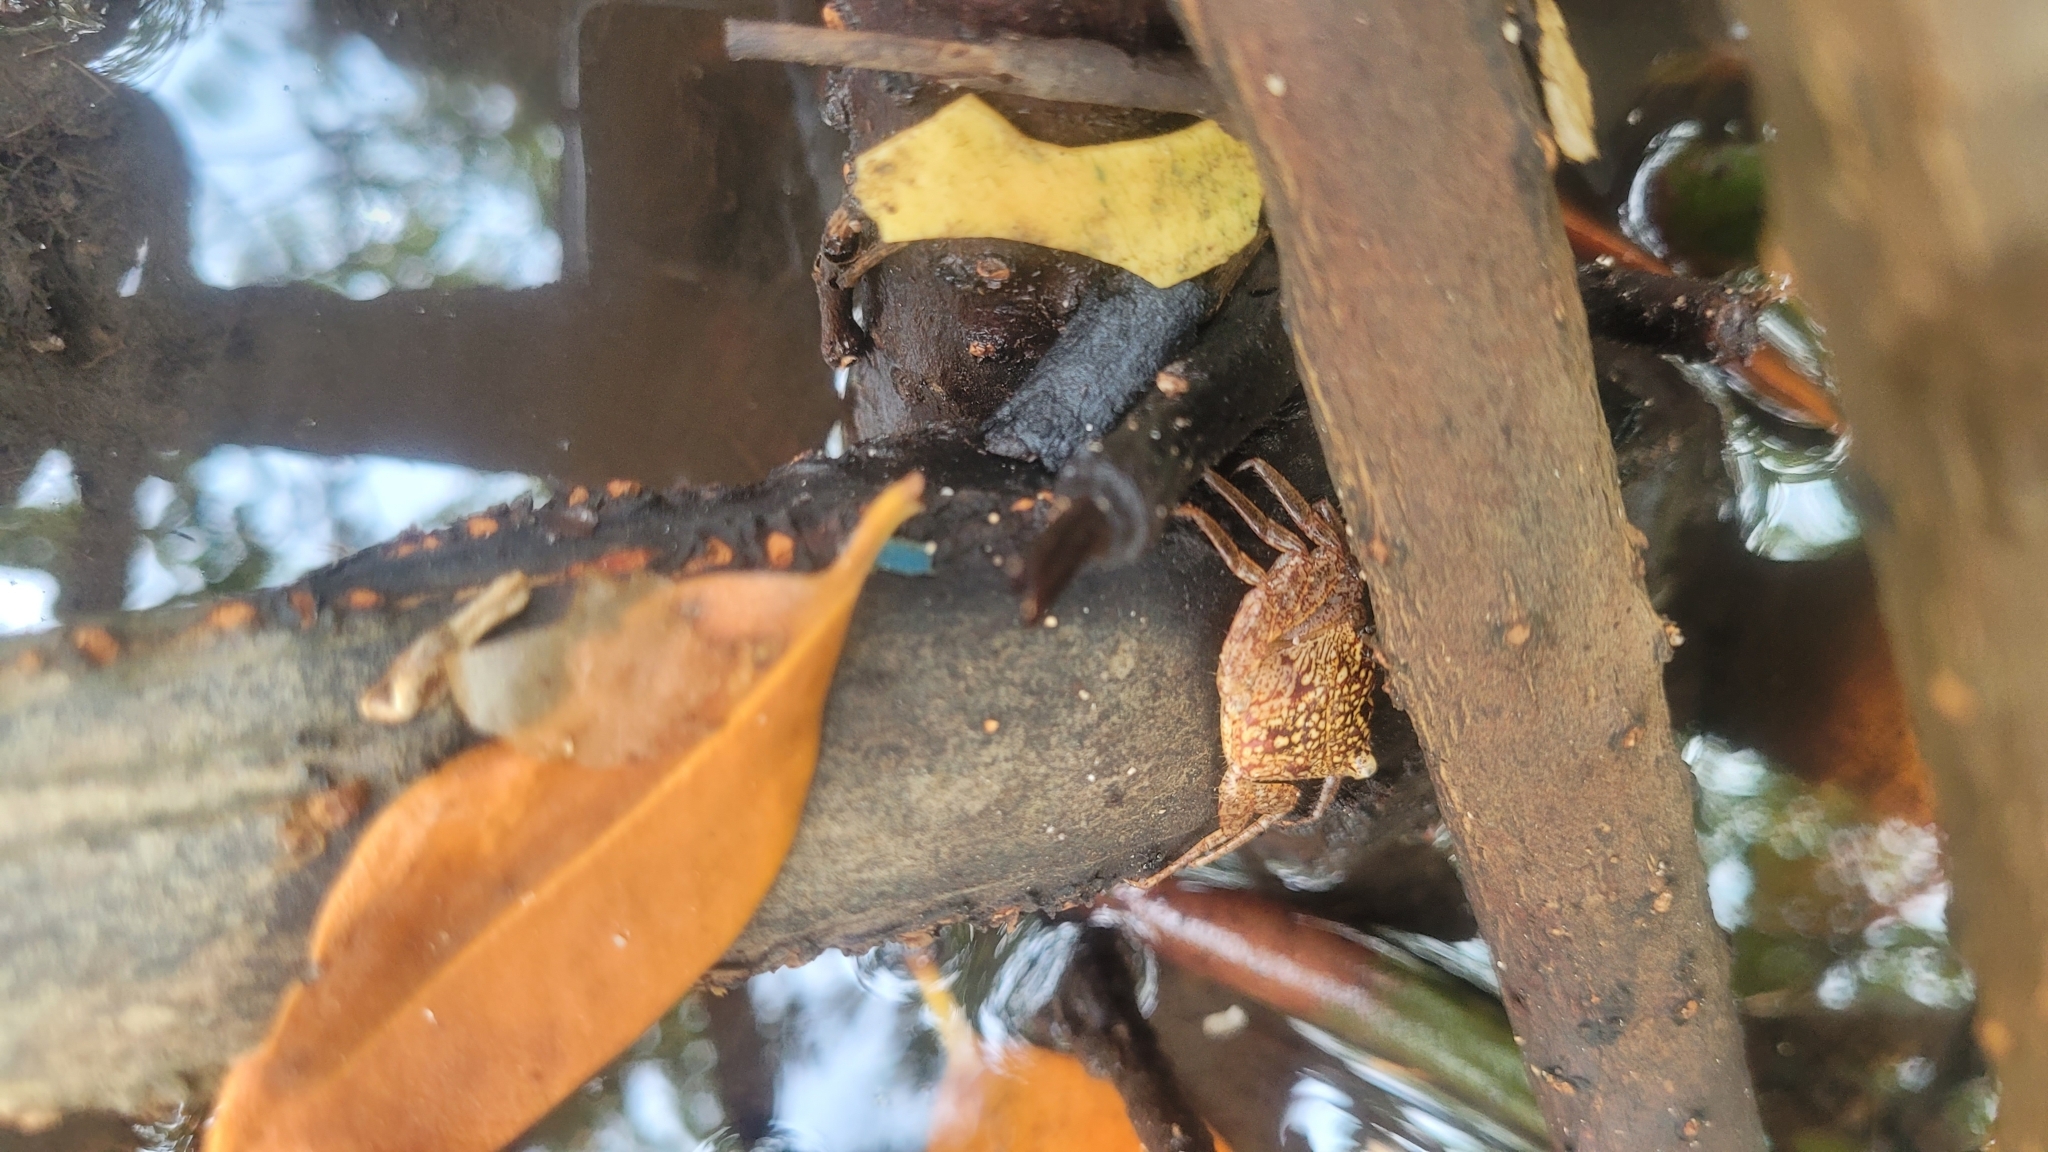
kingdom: Animalia
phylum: Arthropoda
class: Malacostraca
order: Decapoda
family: Sesarmidae
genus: Aratus
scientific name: Aratus pisonii
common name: Mangrove crab
